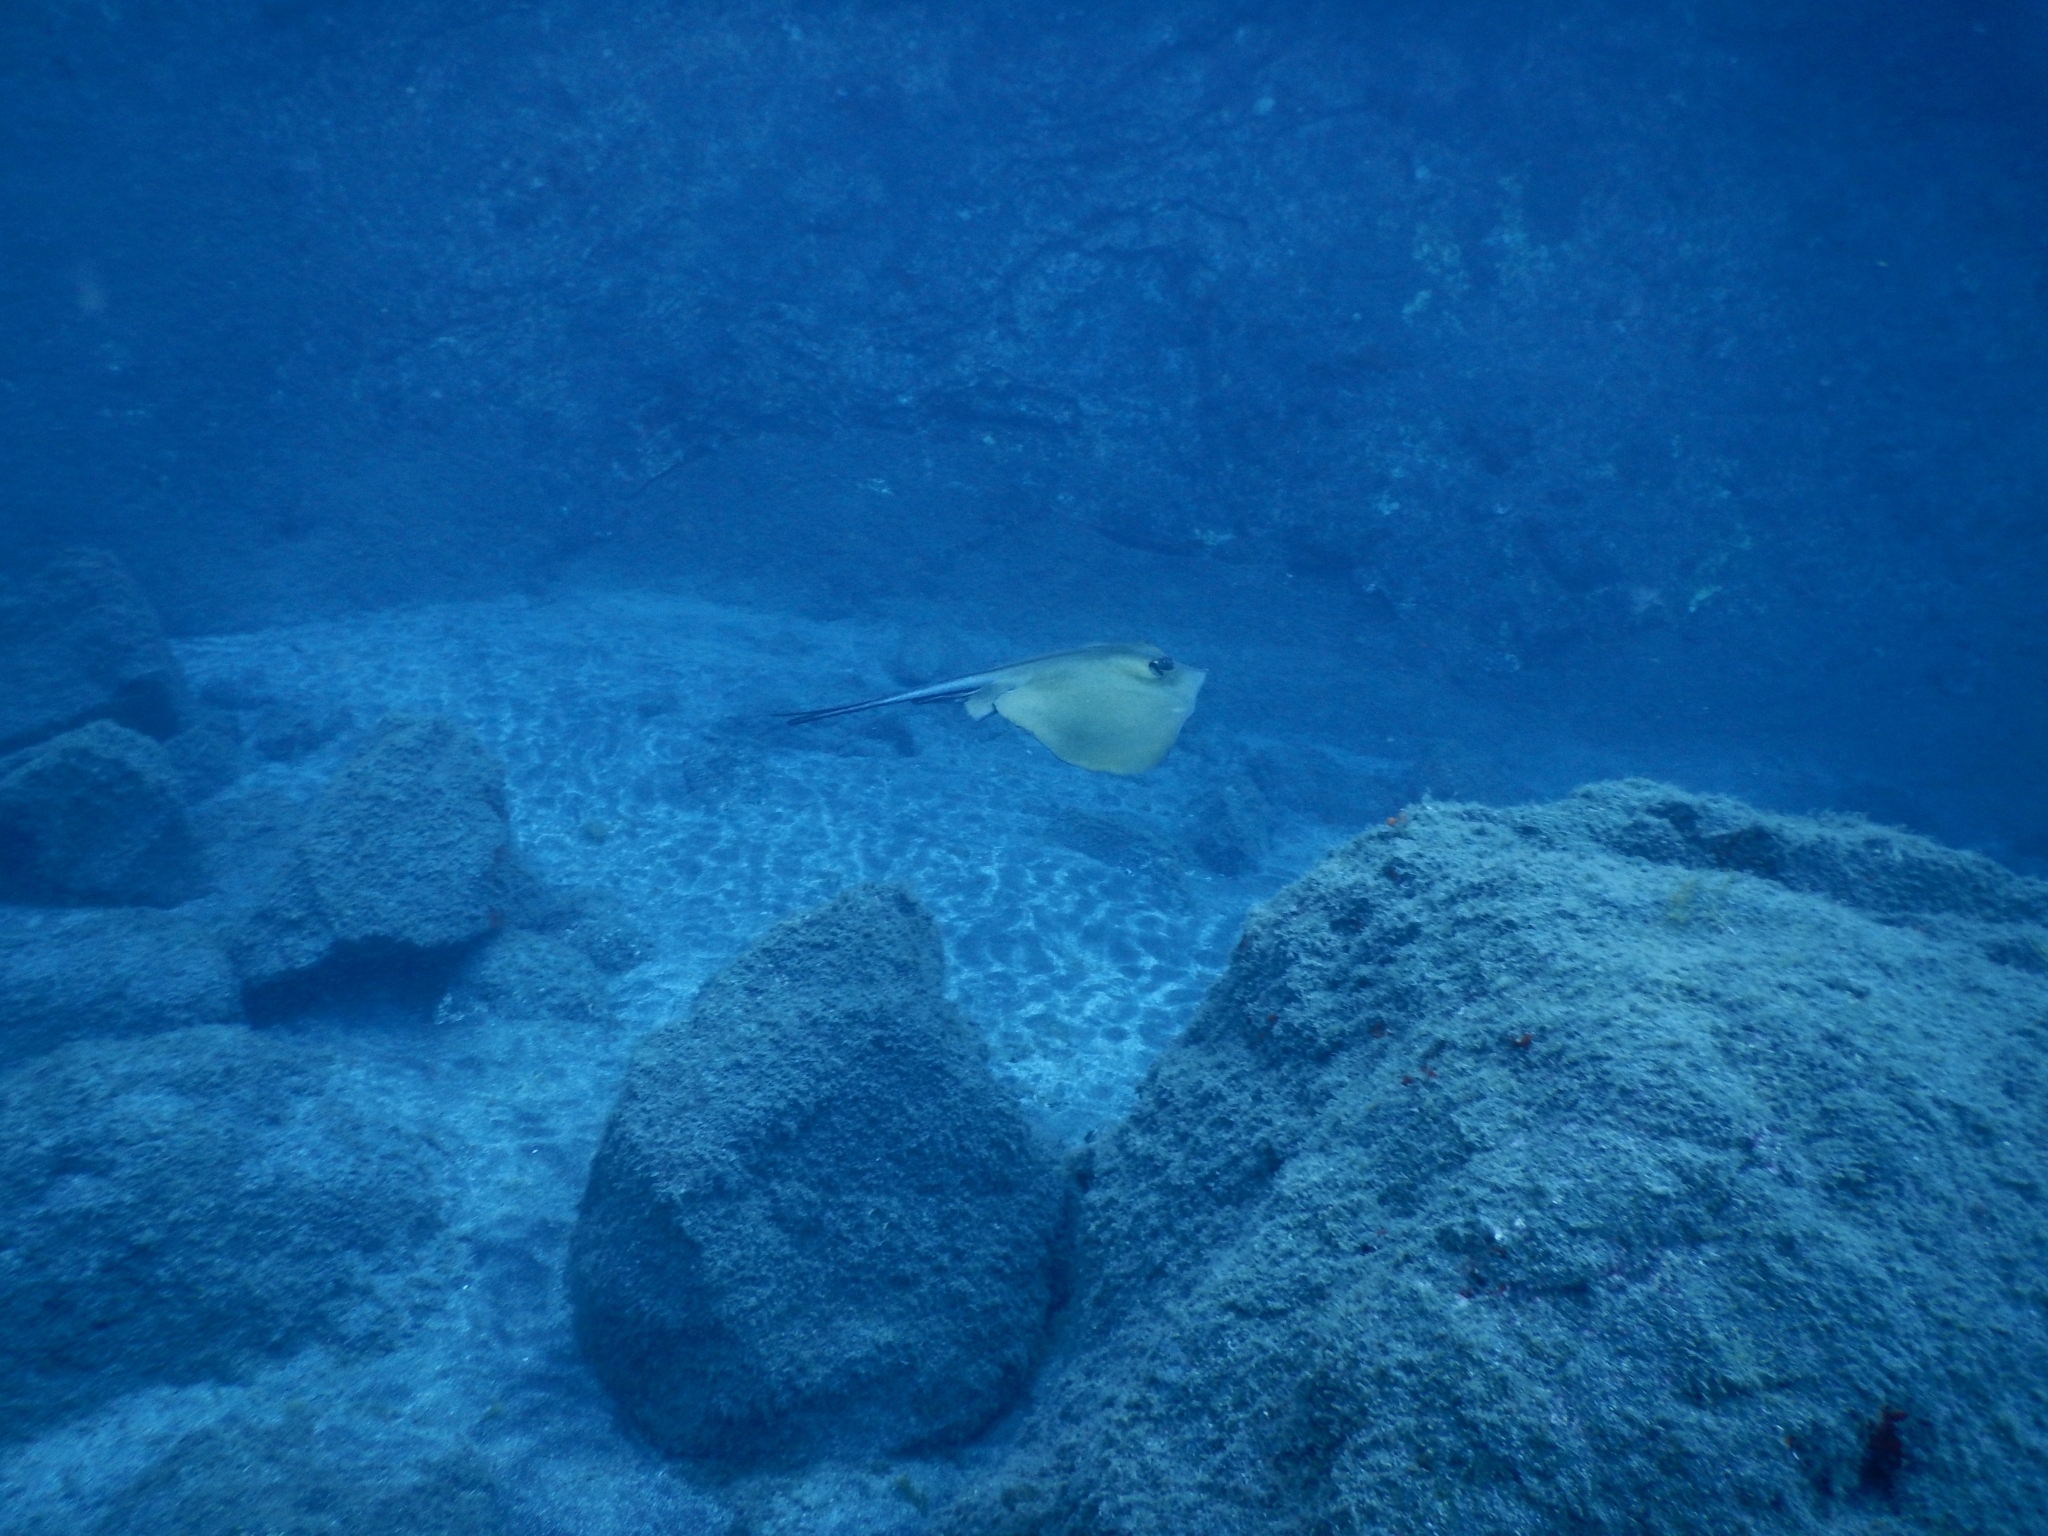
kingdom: Animalia
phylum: Chordata
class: Elasmobranchii
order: Myliobatiformes
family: Dasyatidae
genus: Dasyatis
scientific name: Dasyatis pastinaca
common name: Common stingray
